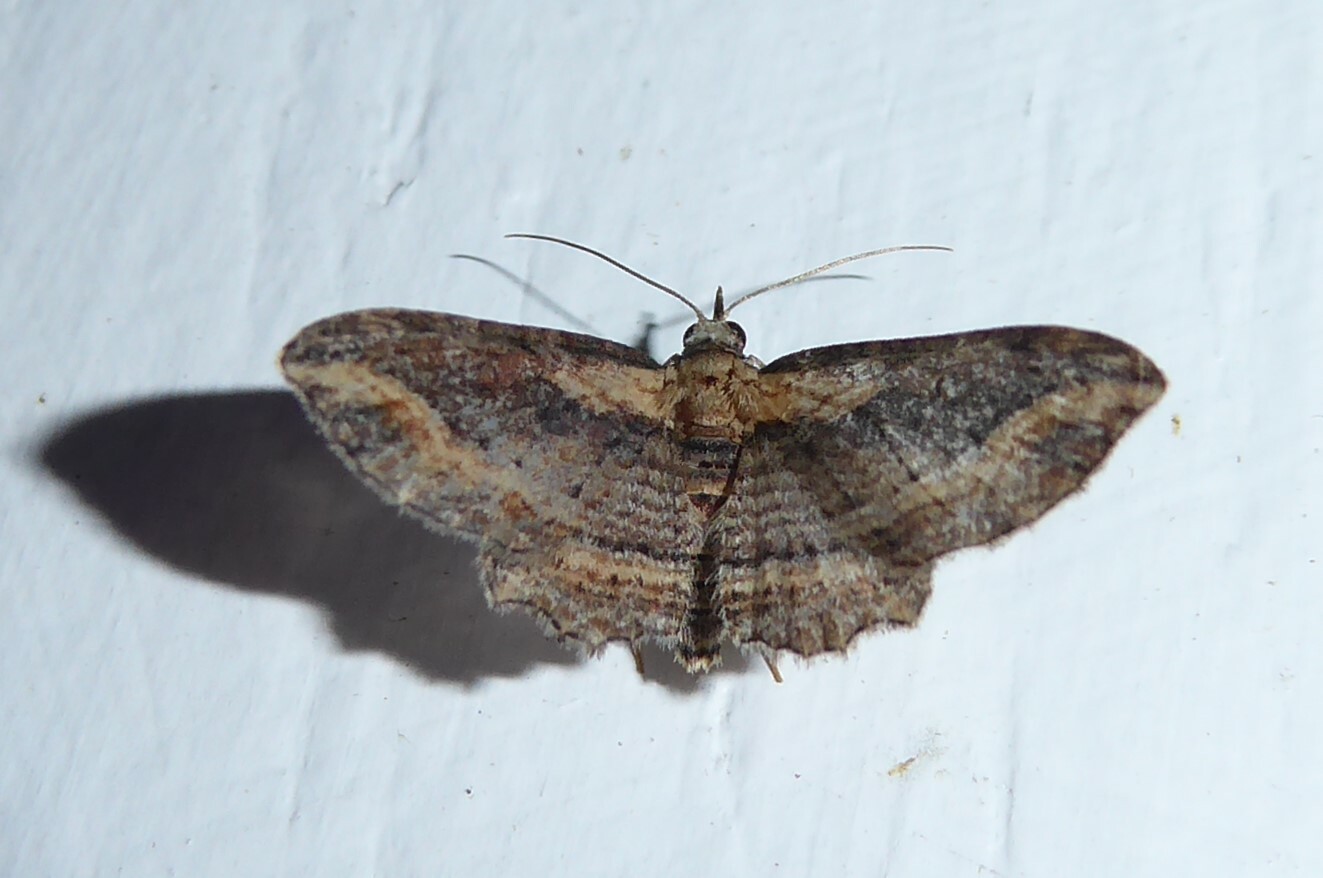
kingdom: Animalia
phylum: Arthropoda
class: Insecta
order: Lepidoptera
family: Geometridae
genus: Chloroclystis
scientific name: Chloroclystis filata
